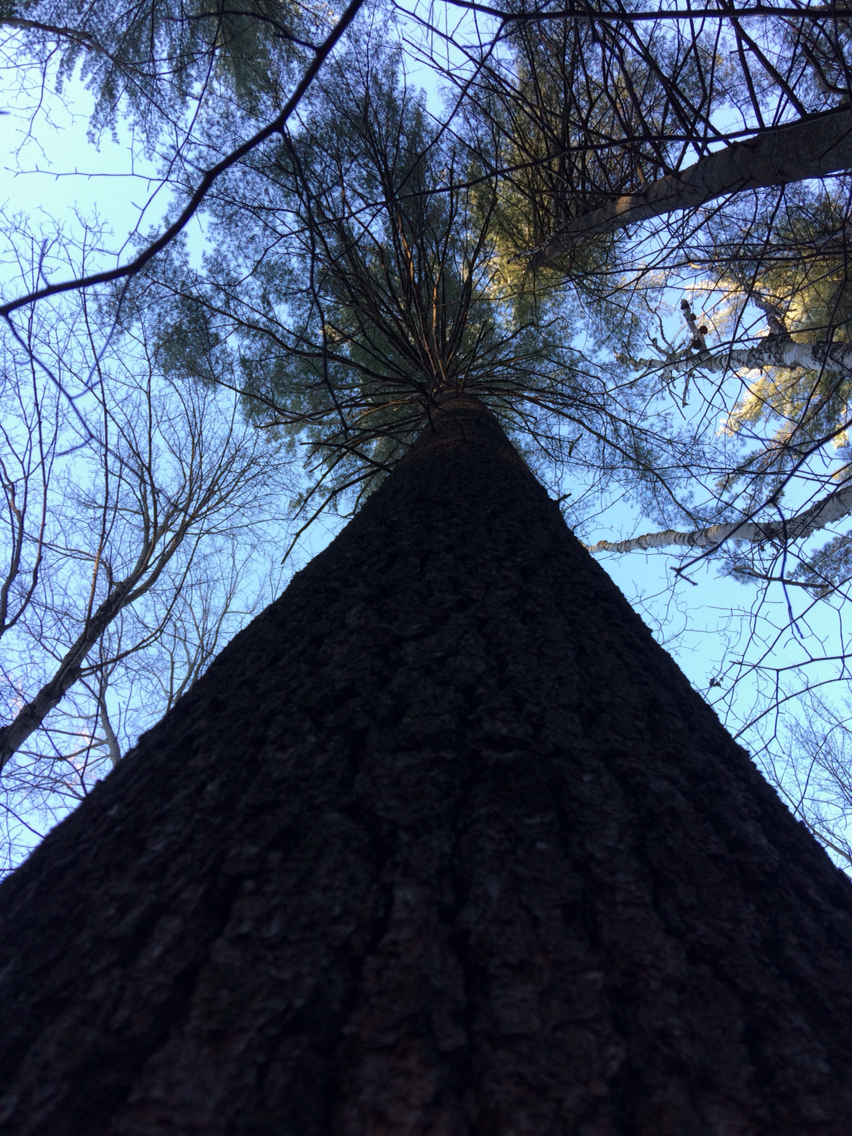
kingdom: Plantae
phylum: Tracheophyta
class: Pinopsida
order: Pinales
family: Pinaceae
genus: Pinus
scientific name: Pinus strobus
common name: Weymouth pine
